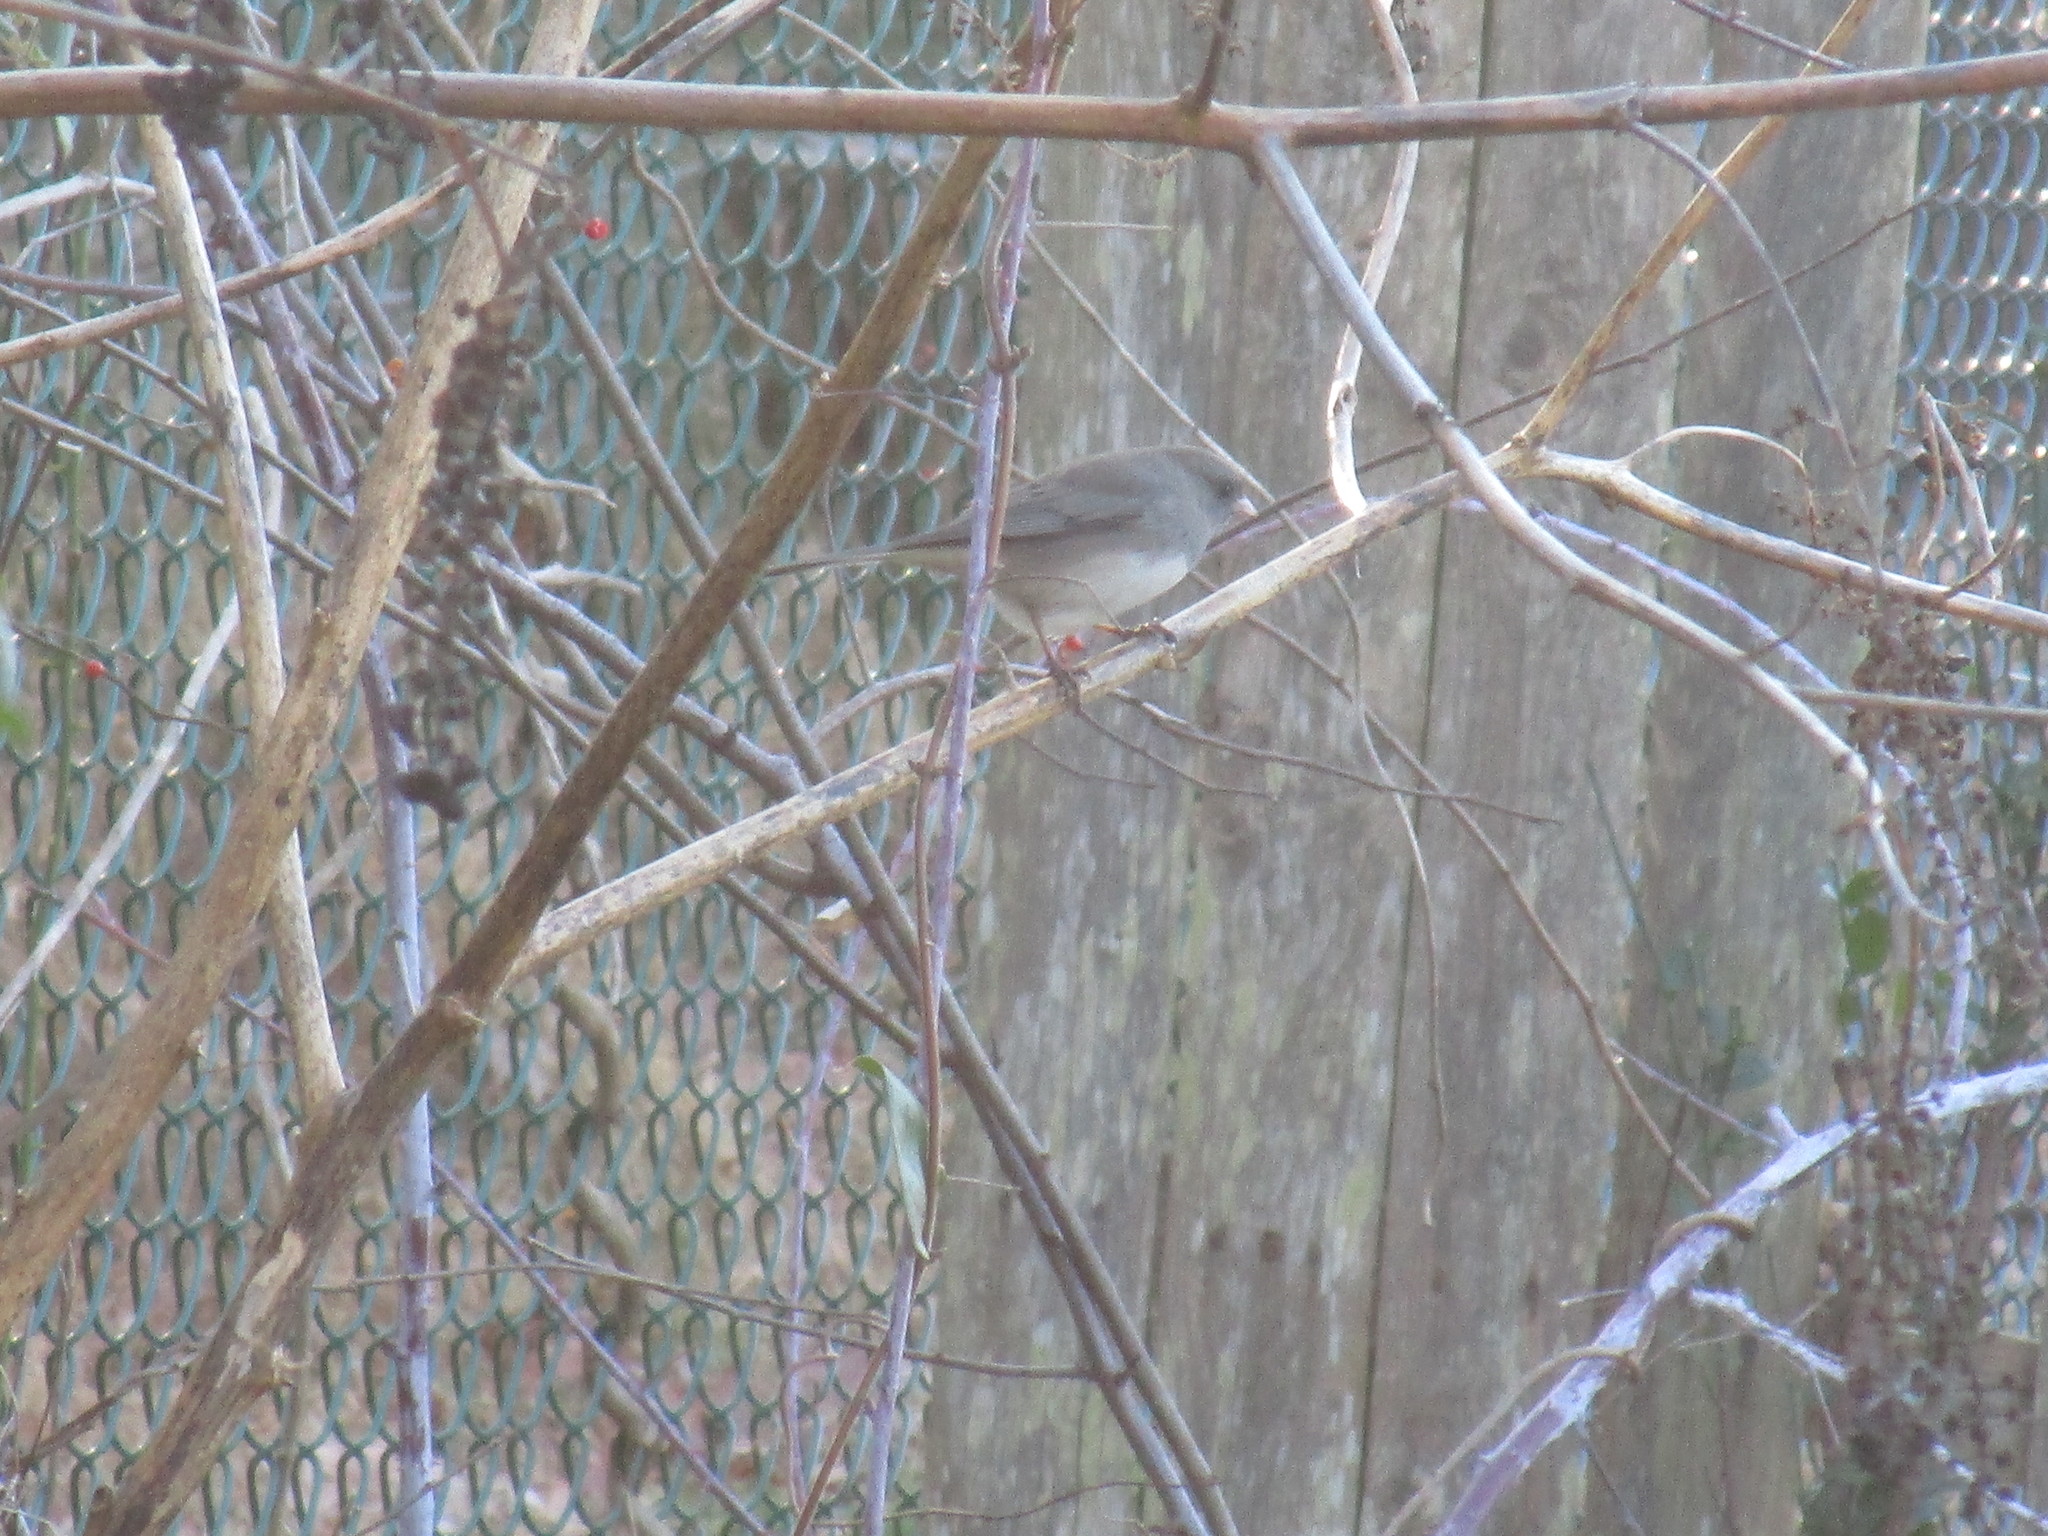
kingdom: Animalia
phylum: Chordata
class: Aves
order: Passeriformes
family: Passerellidae
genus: Junco
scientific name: Junco hyemalis
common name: Dark-eyed junco
